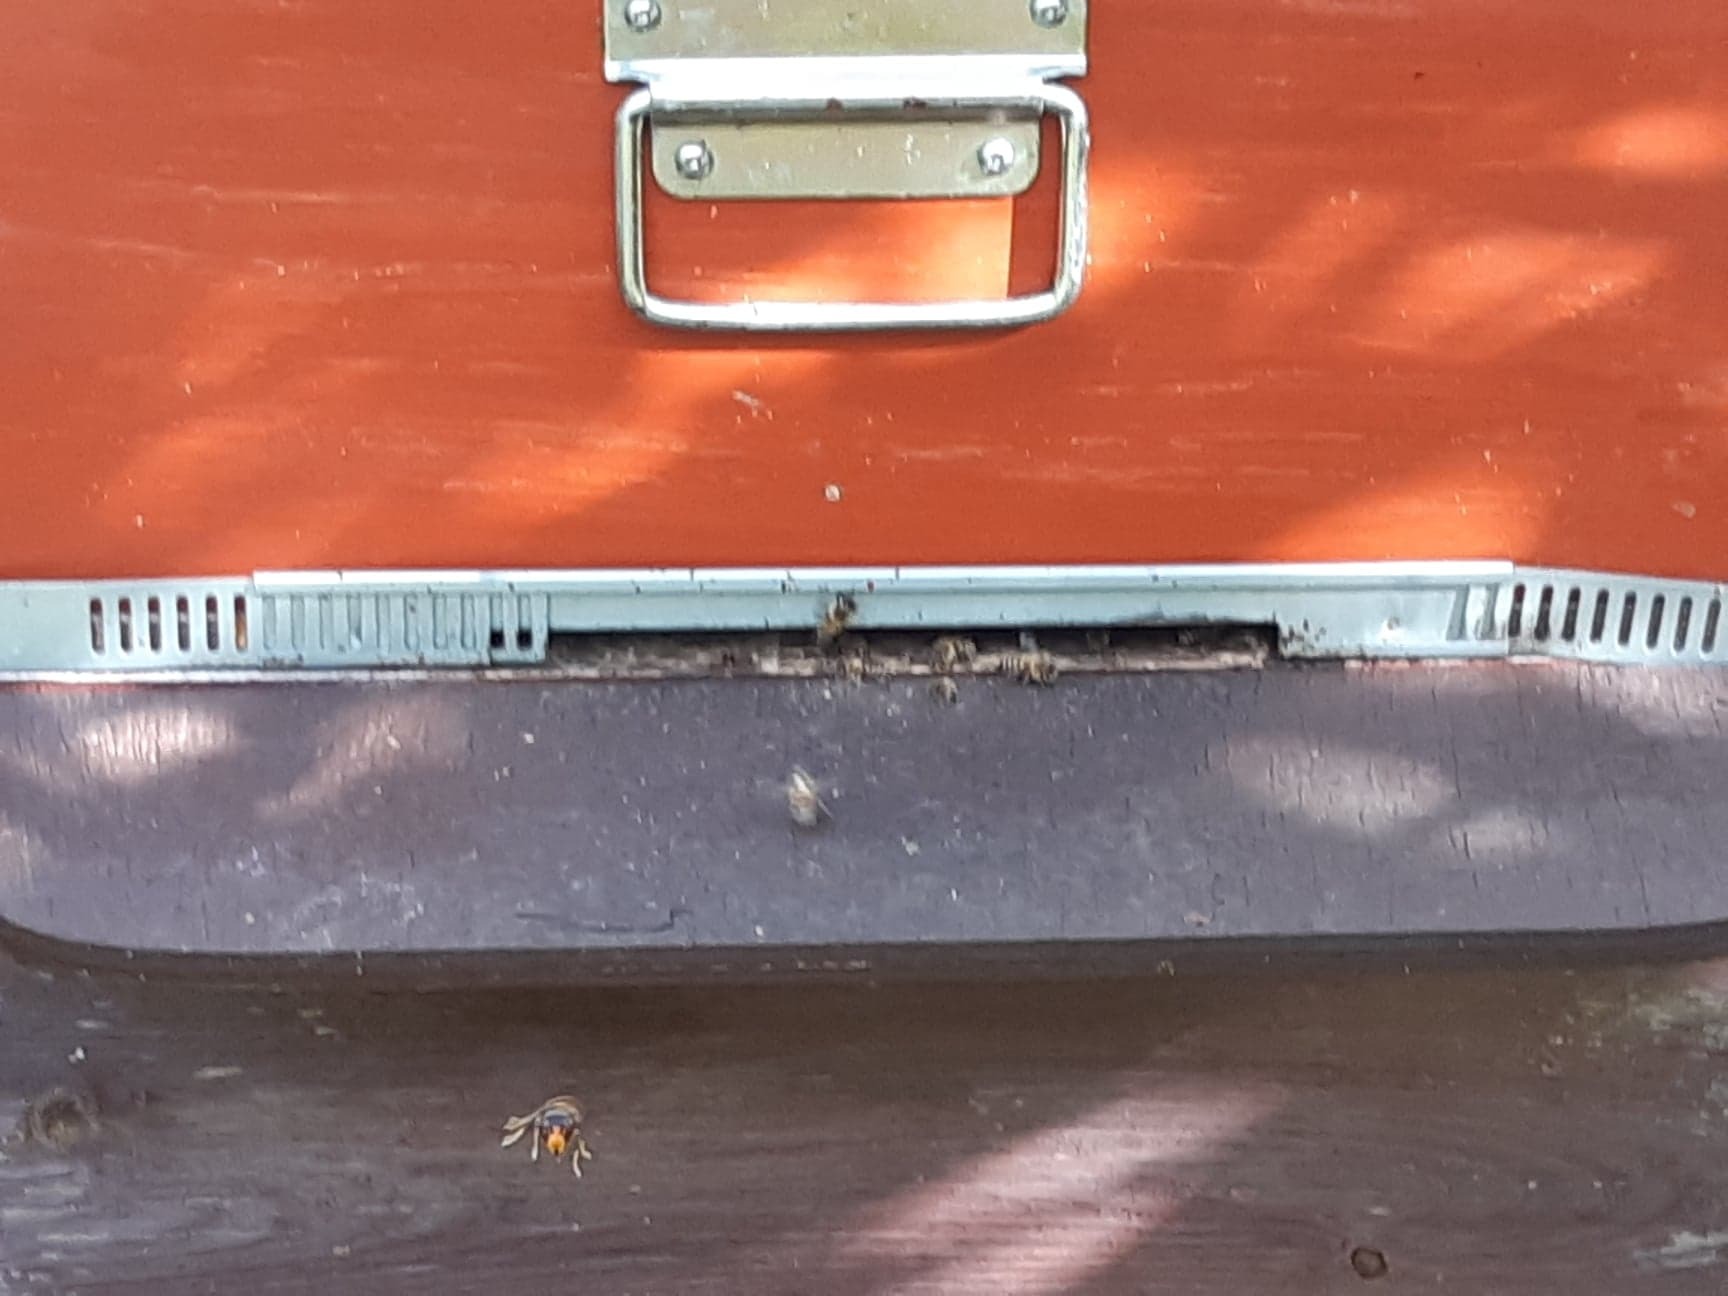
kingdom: Animalia
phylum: Arthropoda
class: Insecta
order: Hymenoptera
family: Vespidae
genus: Vespa
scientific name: Vespa velutina
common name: Asian hornet
